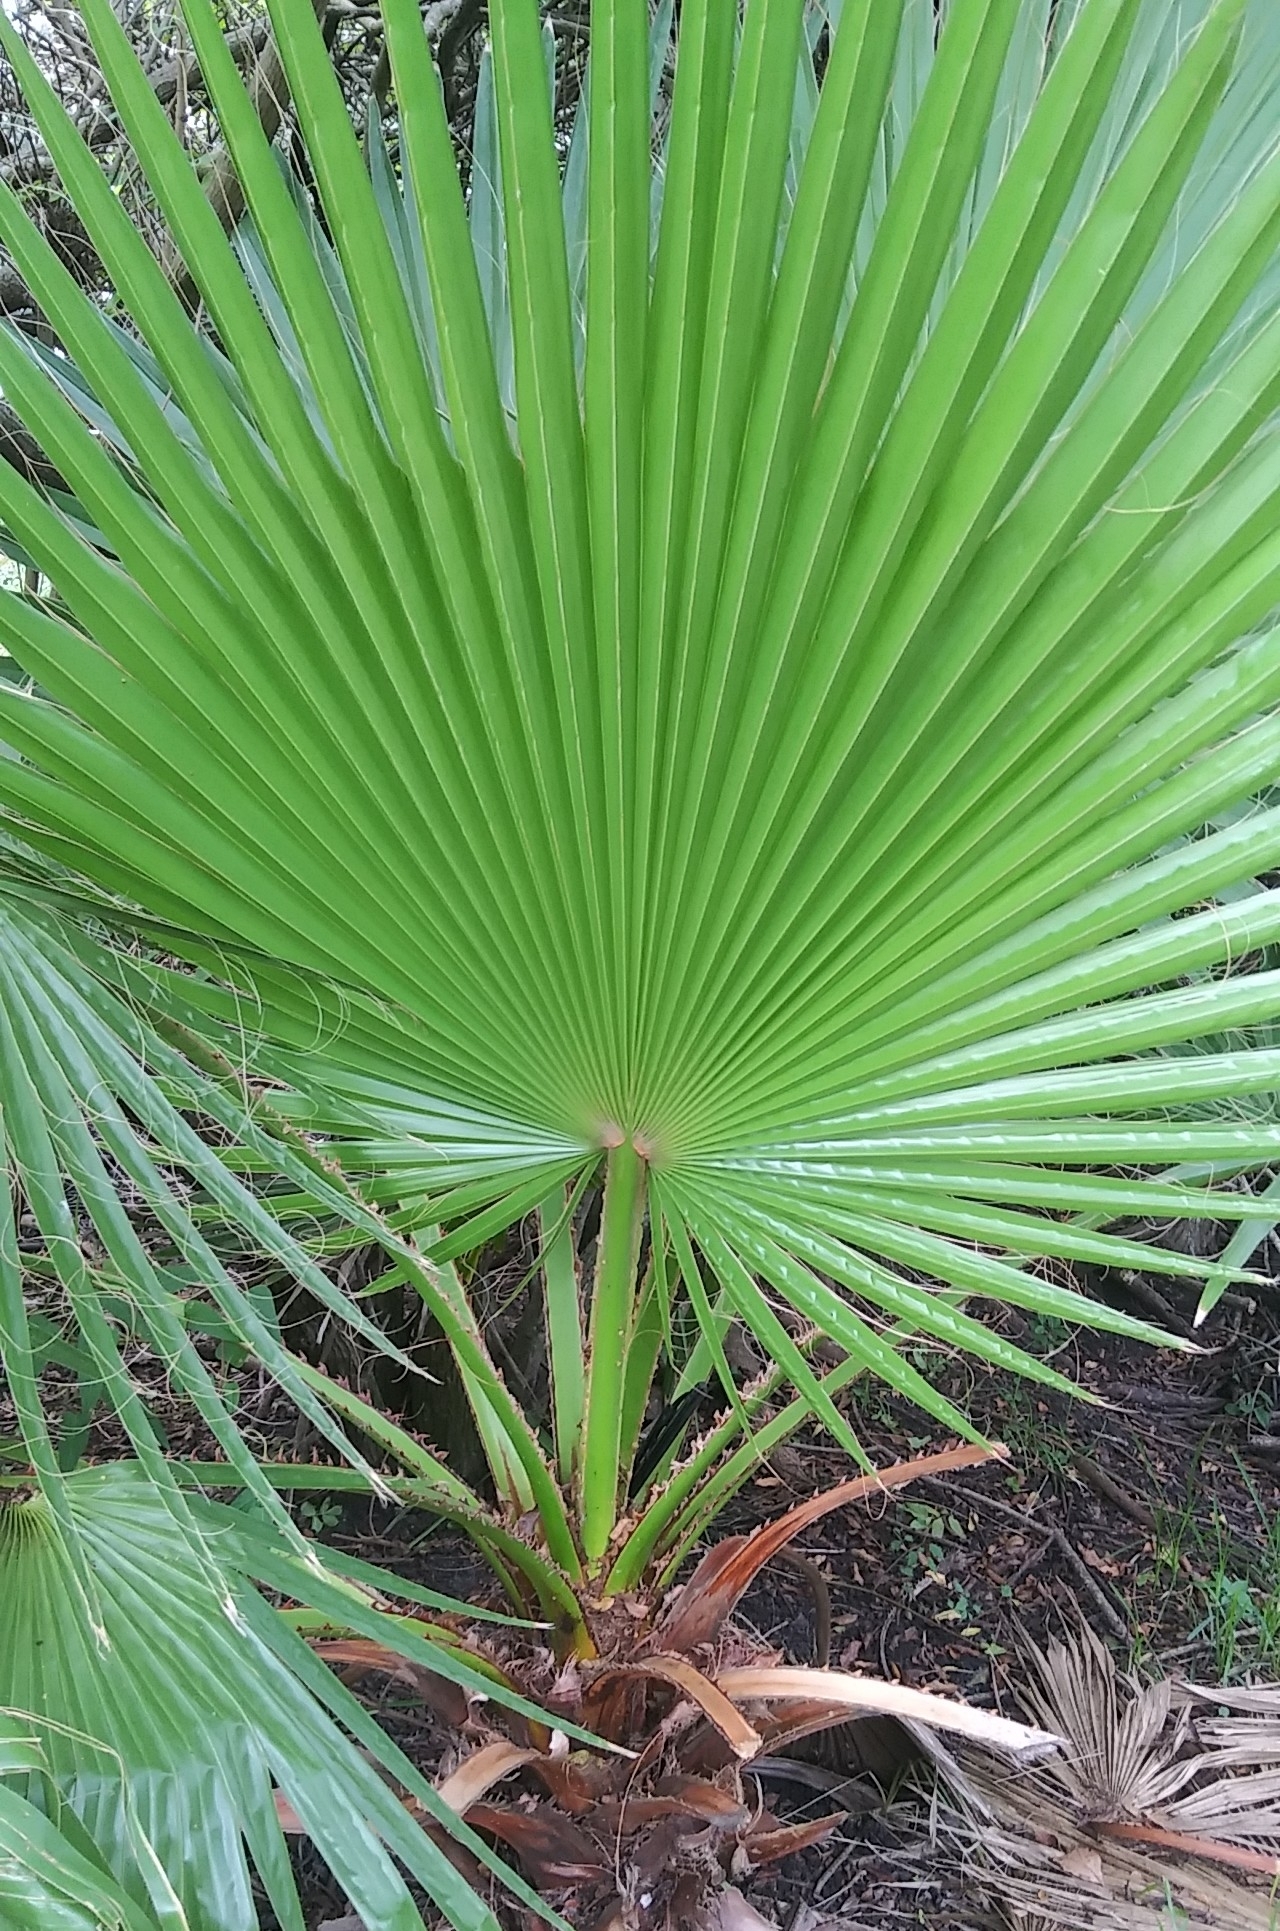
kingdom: Plantae
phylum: Tracheophyta
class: Liliopsida
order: Arecales
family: Arecaceae
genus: Washingtonia
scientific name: Washingtonia robusta
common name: Mexican fan palm
